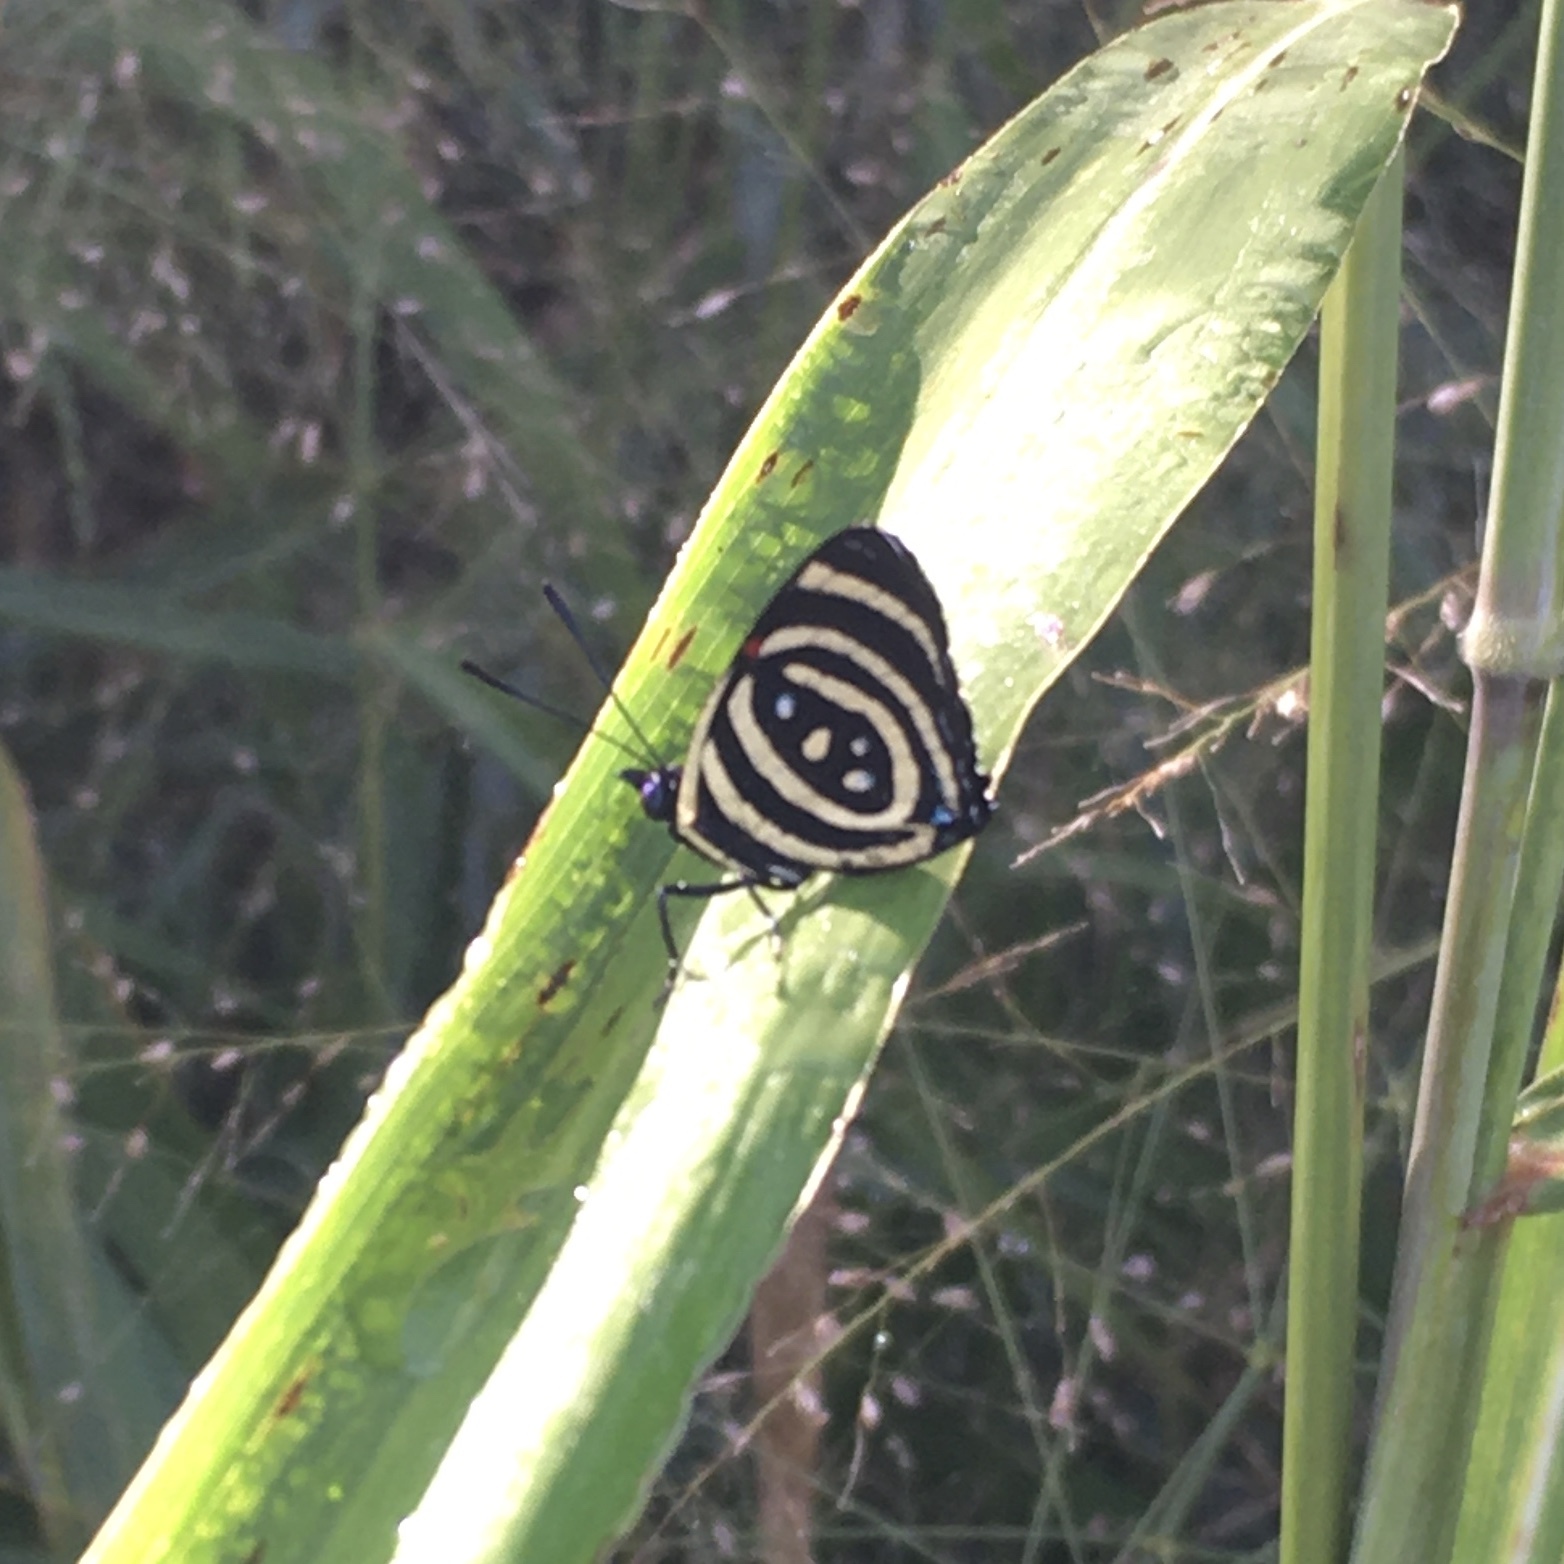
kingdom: Animalia
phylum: Arthropoda
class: Insecta
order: Lepidoptera
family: Nymphalidae
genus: Catagramma
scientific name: Catagramma Callicore hydaspes
